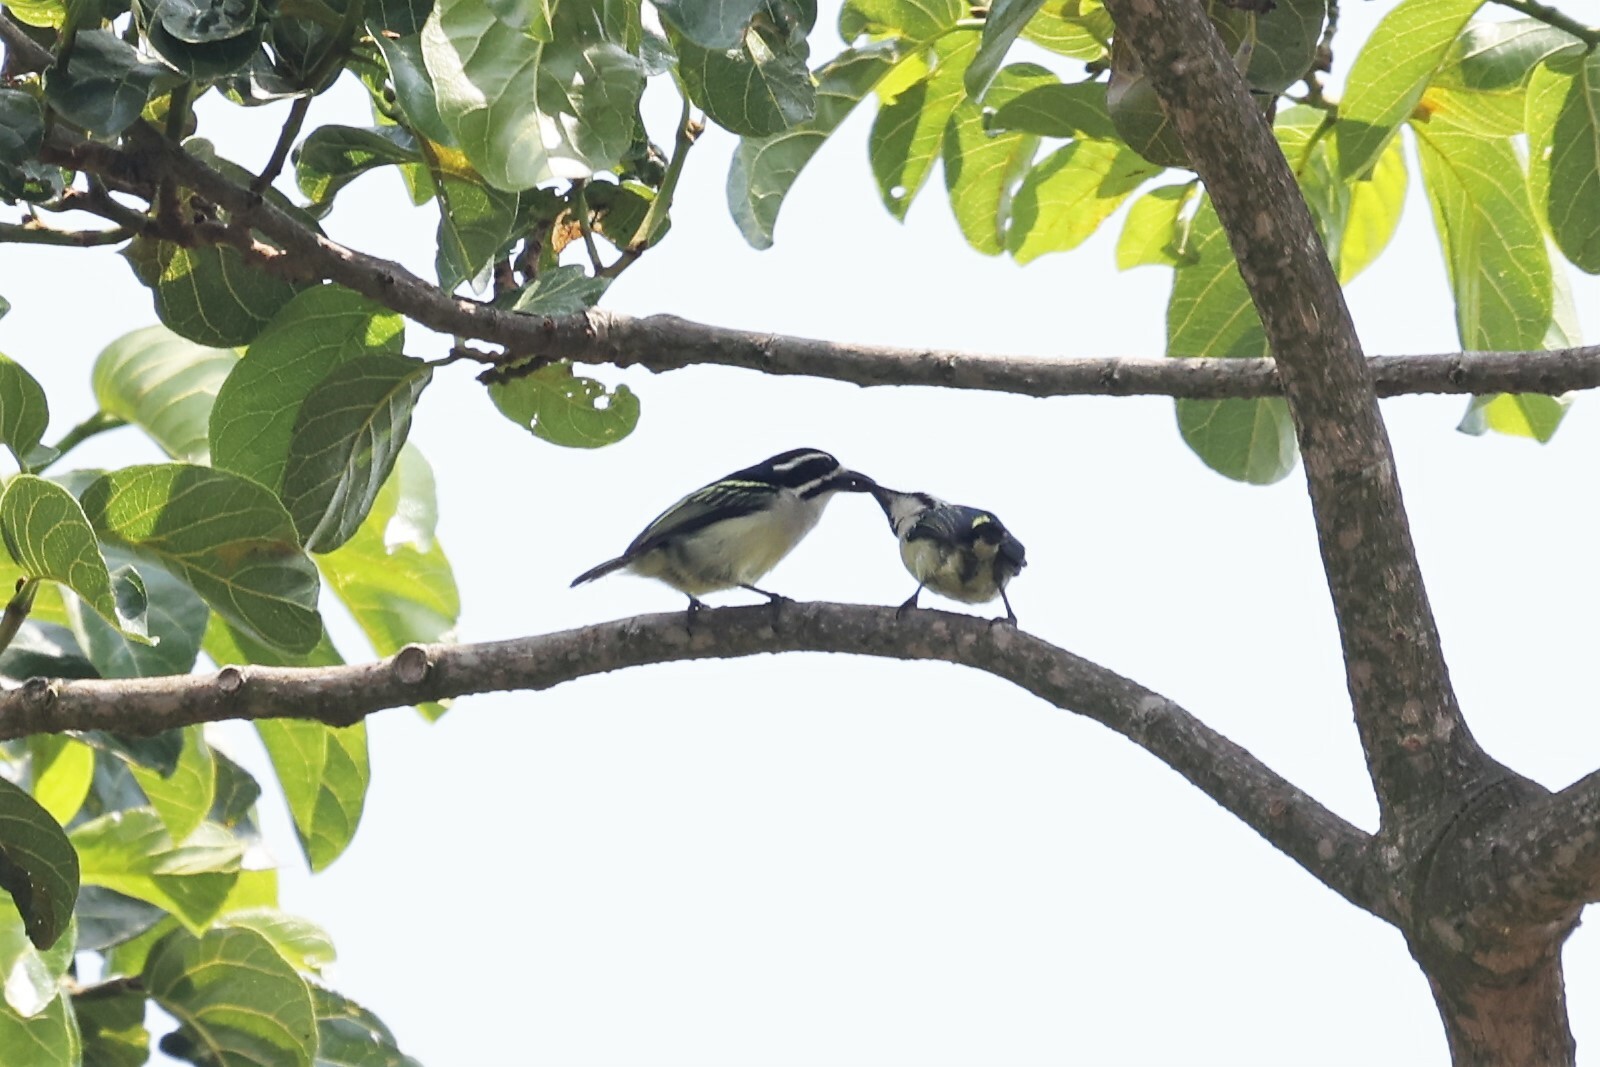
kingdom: Animalia
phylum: Chordata
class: Aves
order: Piciformes
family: Lybiidae
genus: Pogoniulus
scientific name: Pogoniulus bilineatus
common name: Yellow-rumped tinkerbird
